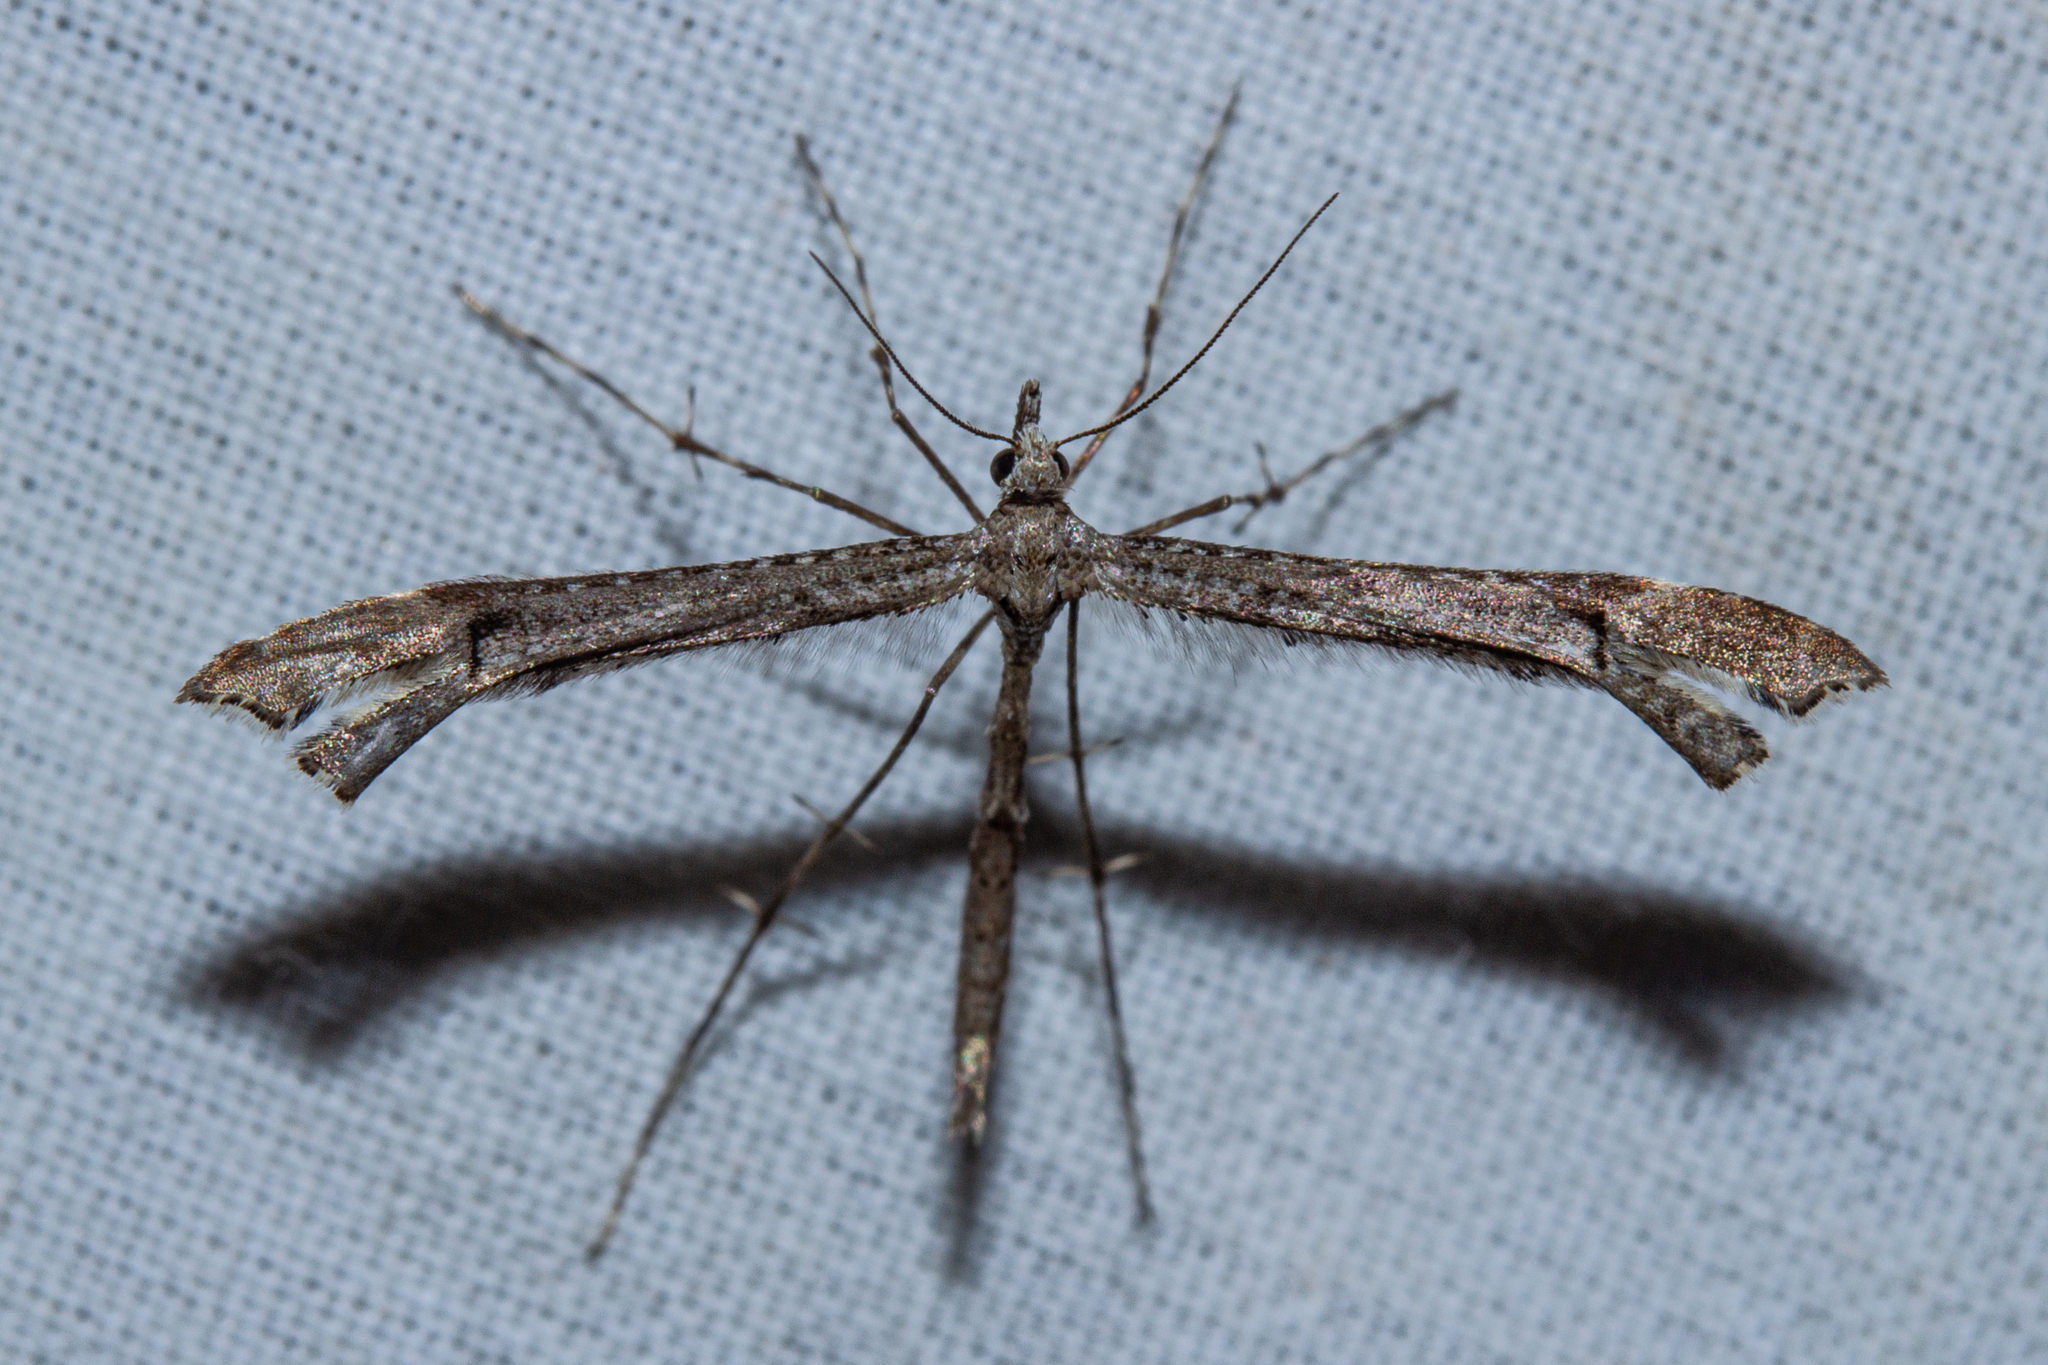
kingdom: Animalia
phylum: Arthropoda
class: Insecta
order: Lepidoptera
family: Pterophoridae
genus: Amblyptilia
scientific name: Amblyptilia repletalis
